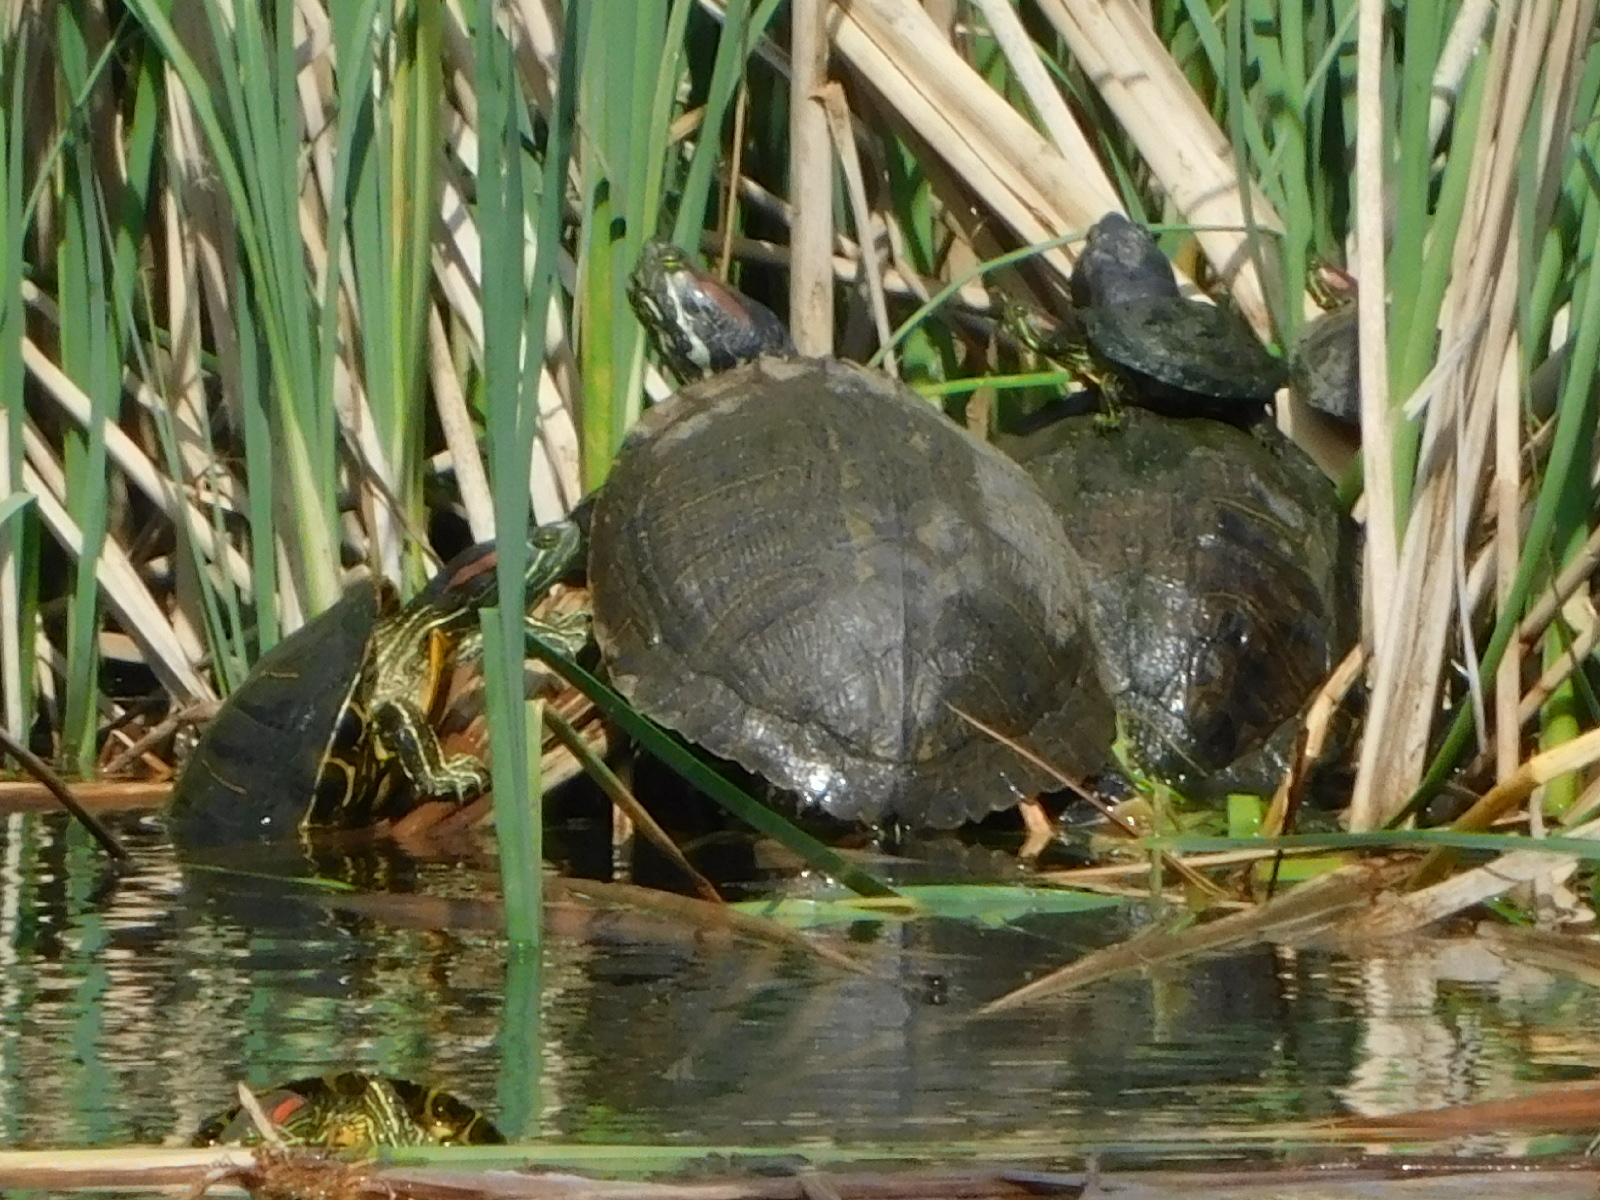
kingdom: Animalia
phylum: Chordata
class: Testudines
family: Emydidae
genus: Trachemys
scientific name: Trachemys scripta
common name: Slider
